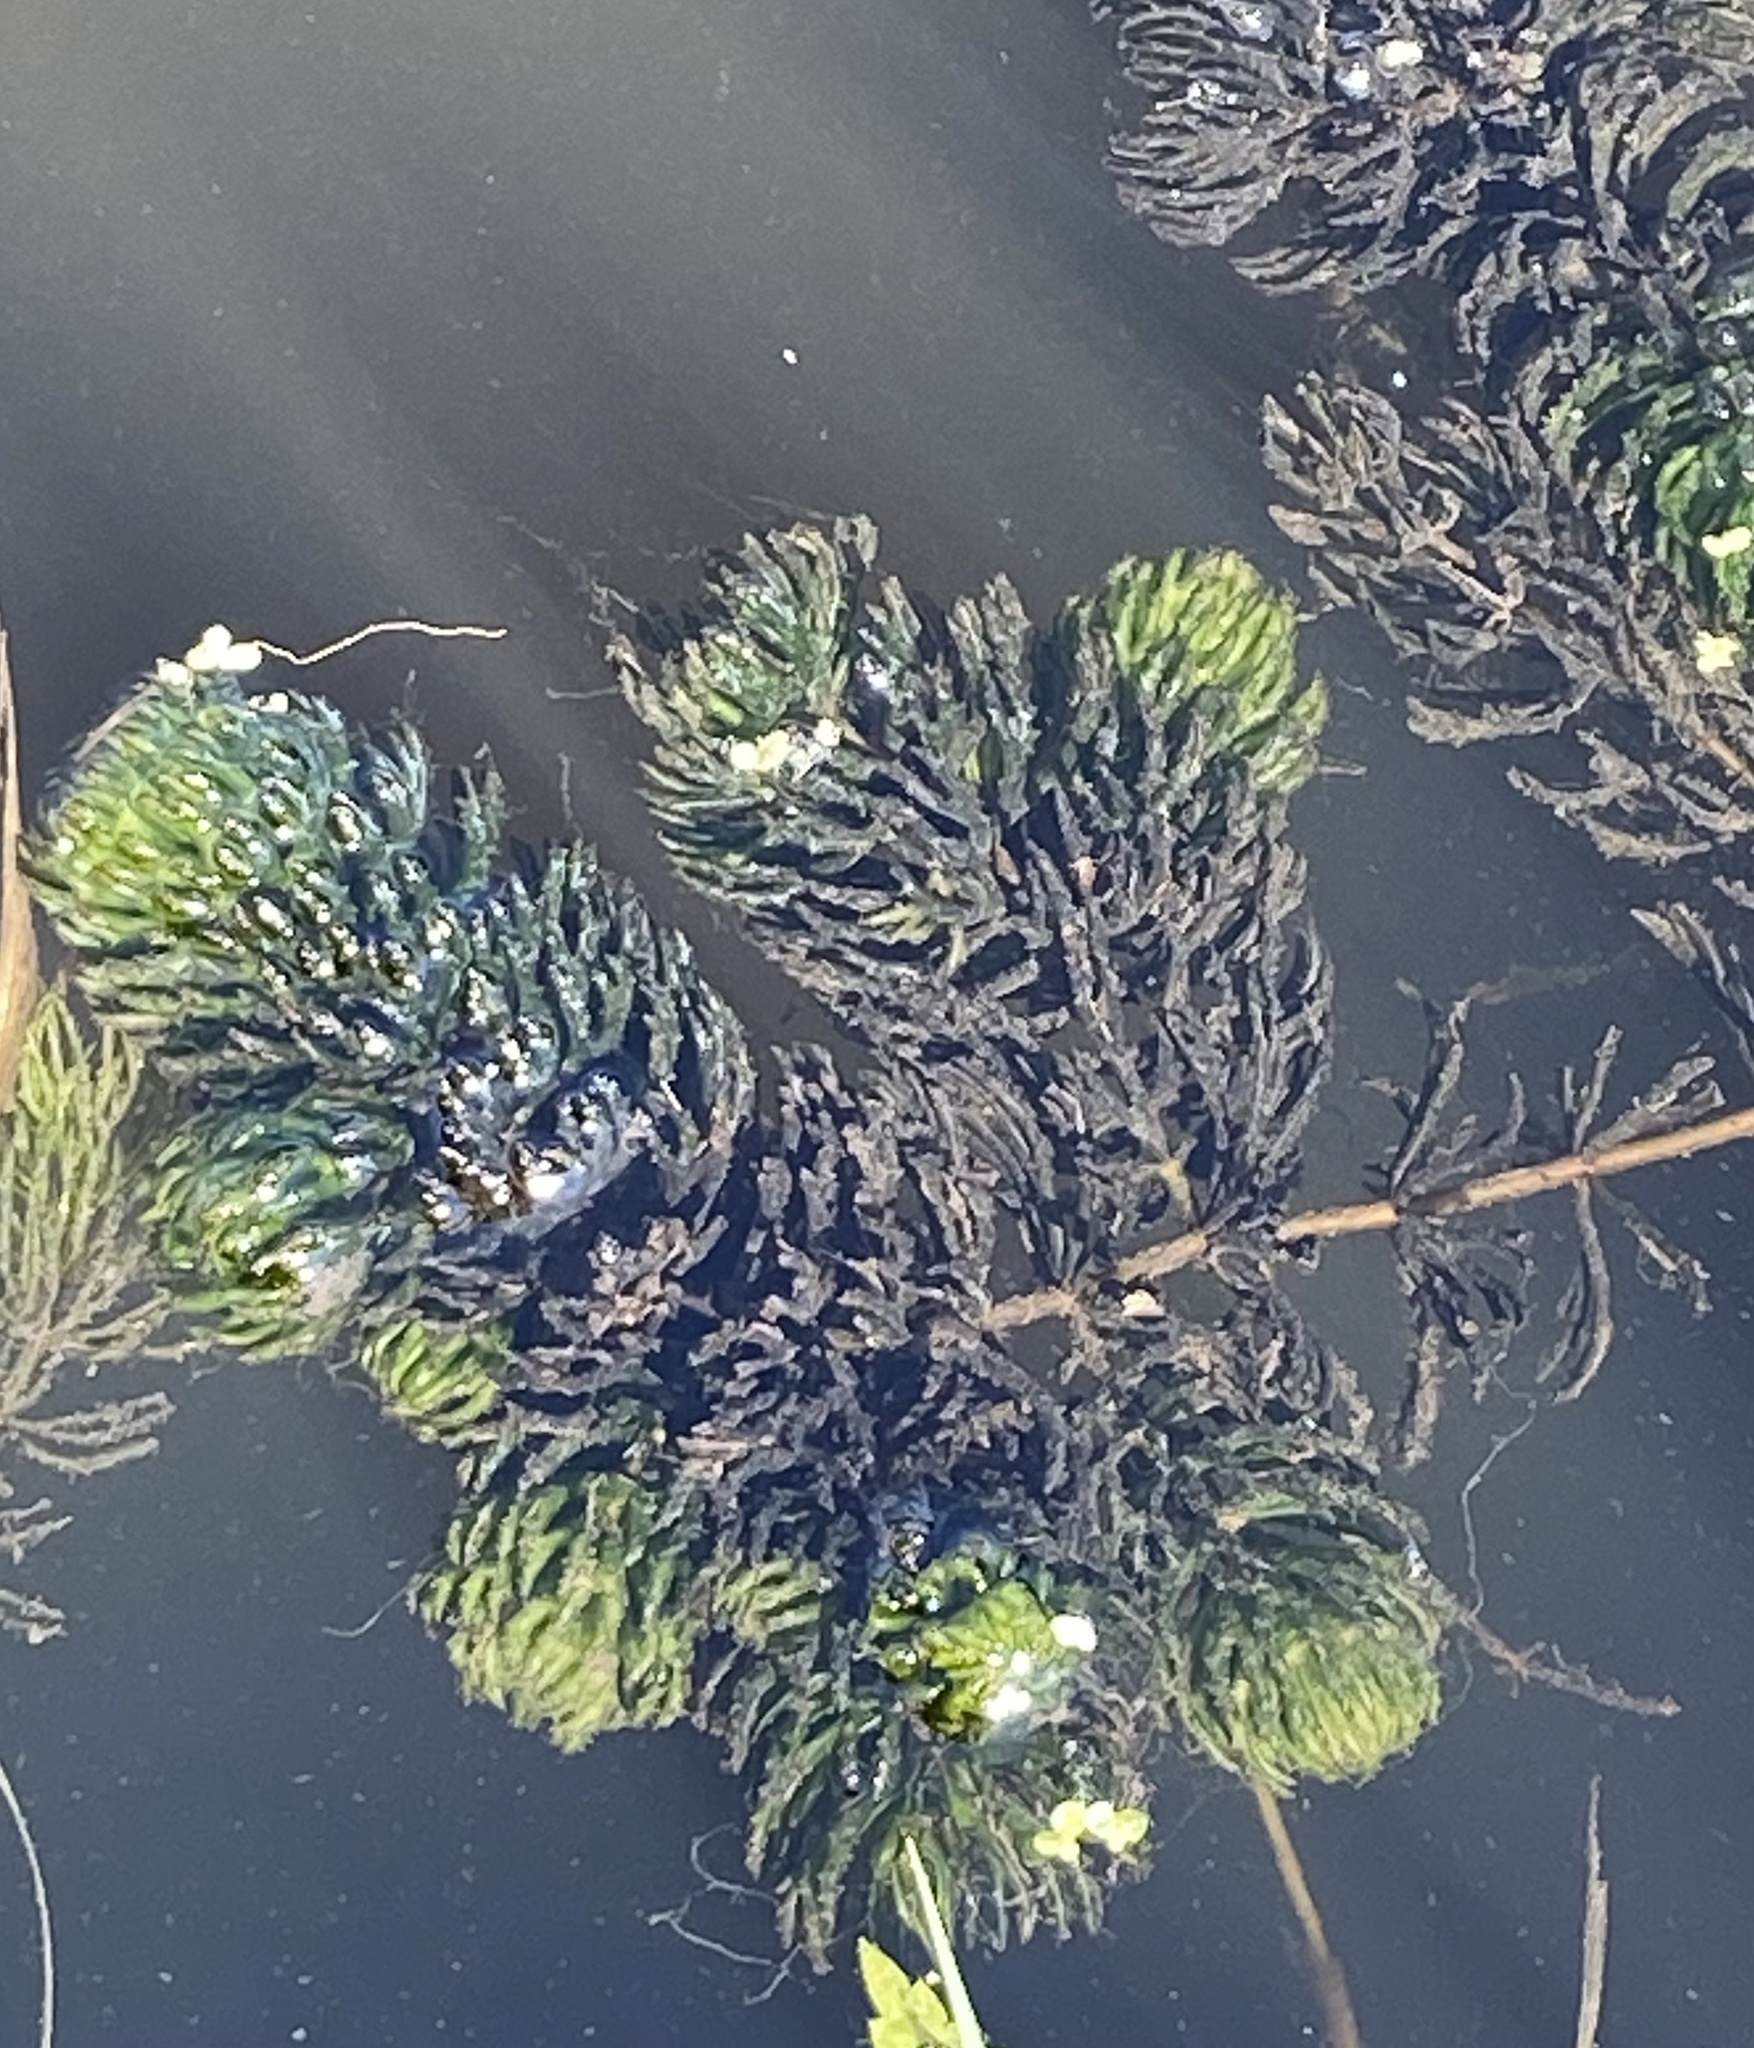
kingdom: Plantae
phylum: Tracheophyta
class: Magnoliopsida
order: Ceratophyllales
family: Ceratophyllaceae
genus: Ceratophyllum
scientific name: Ceratophyllum demersum
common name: Rigid hornwort
